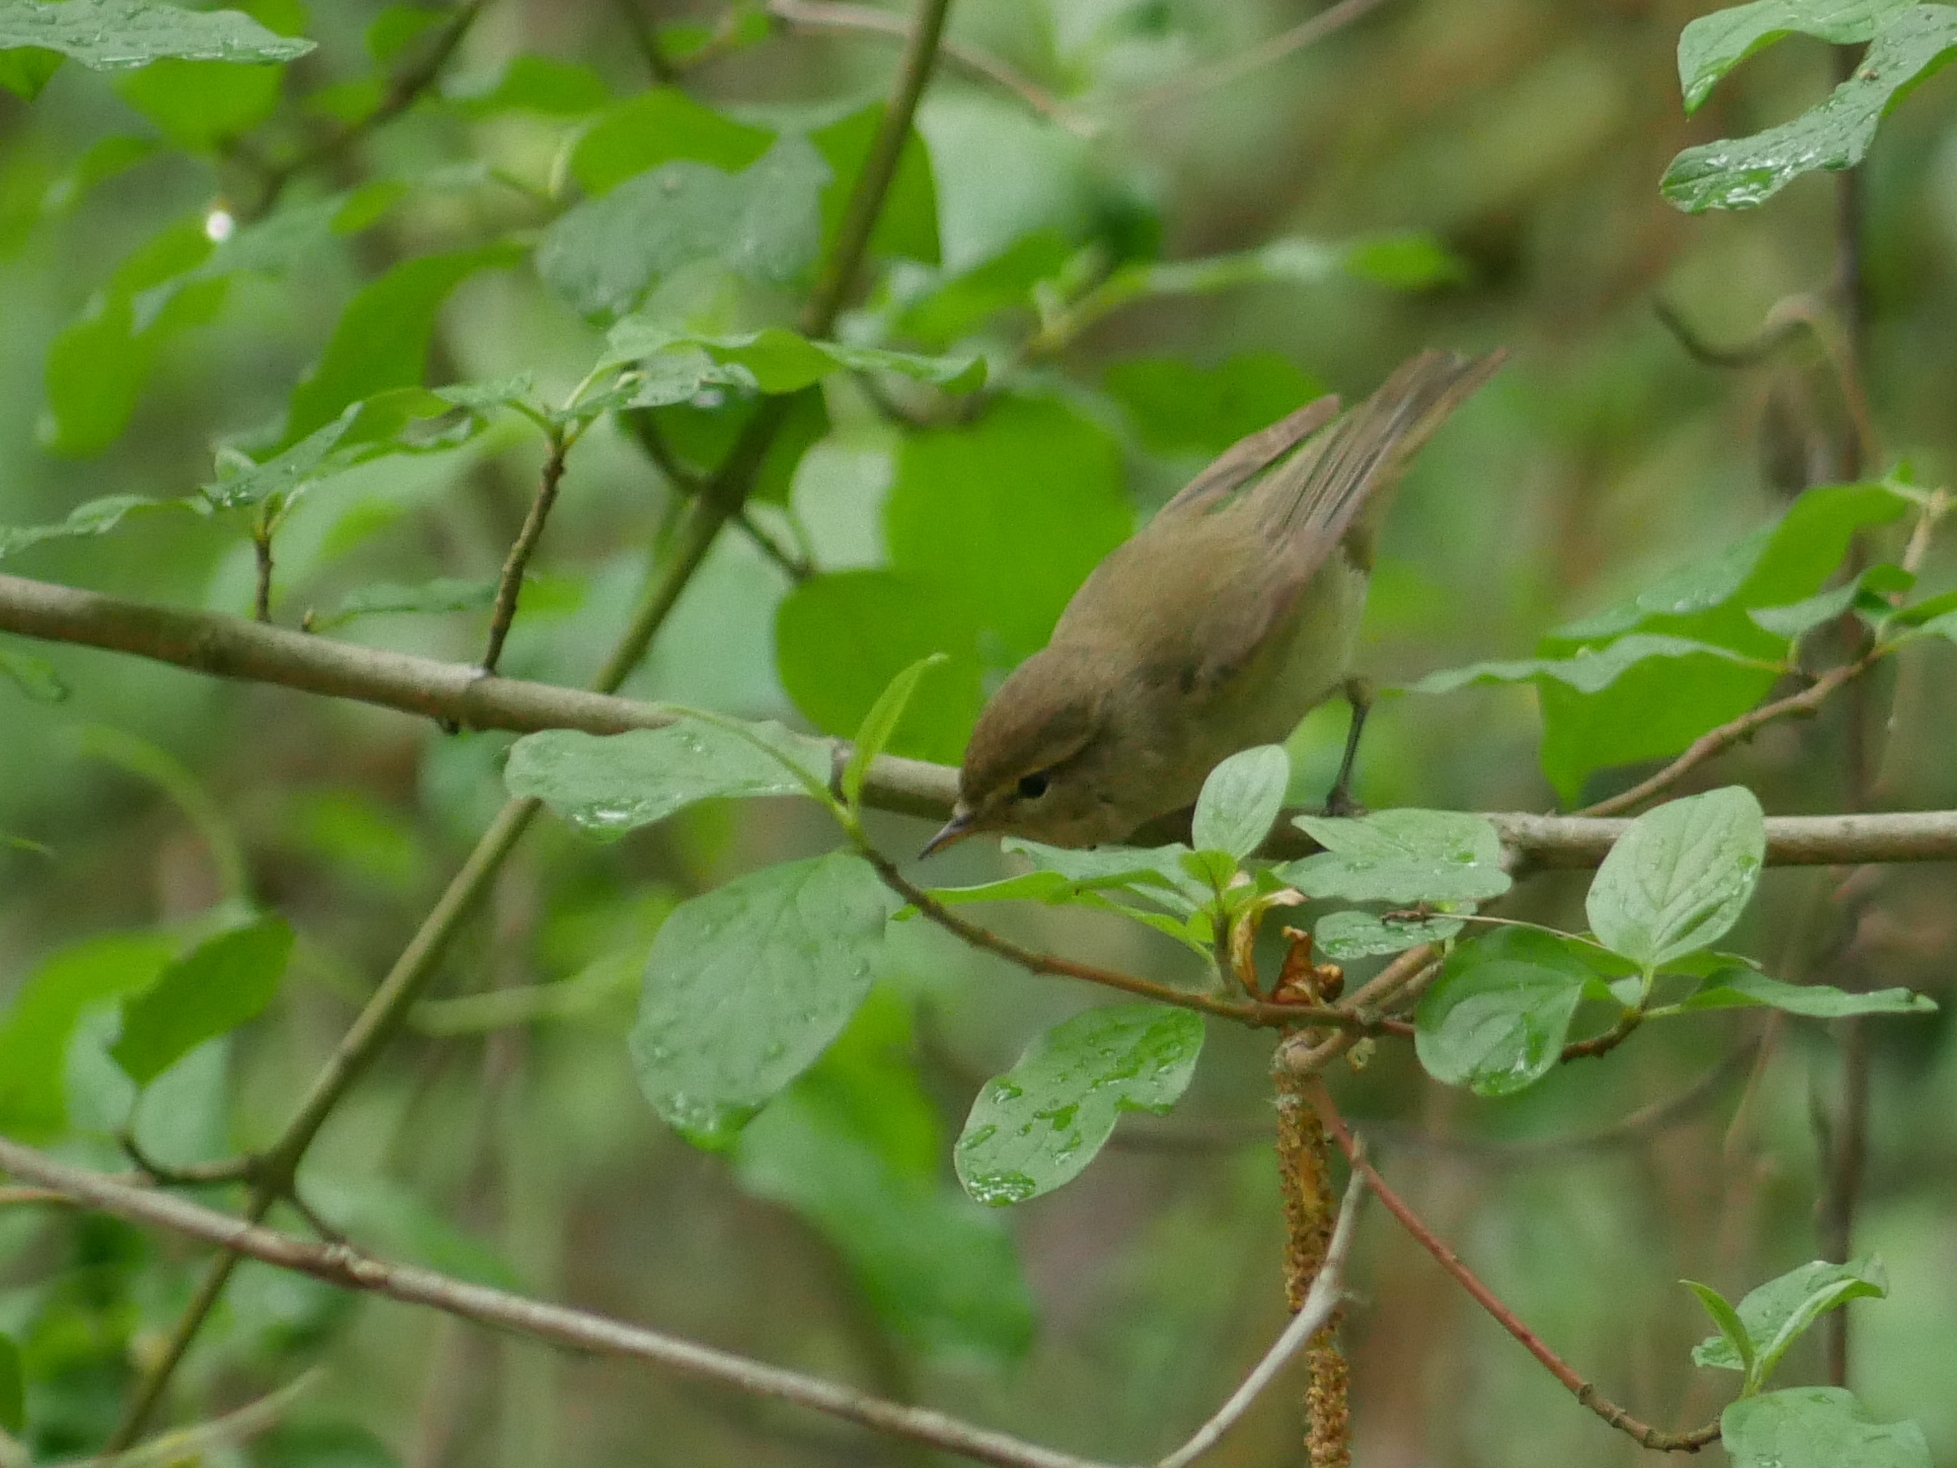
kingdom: Animalia
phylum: Chordata
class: Aves
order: Passeriformes
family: Phylloscopidae
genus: Phylloscopus
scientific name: Phylloscopus collybita
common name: Common chiffchaff
